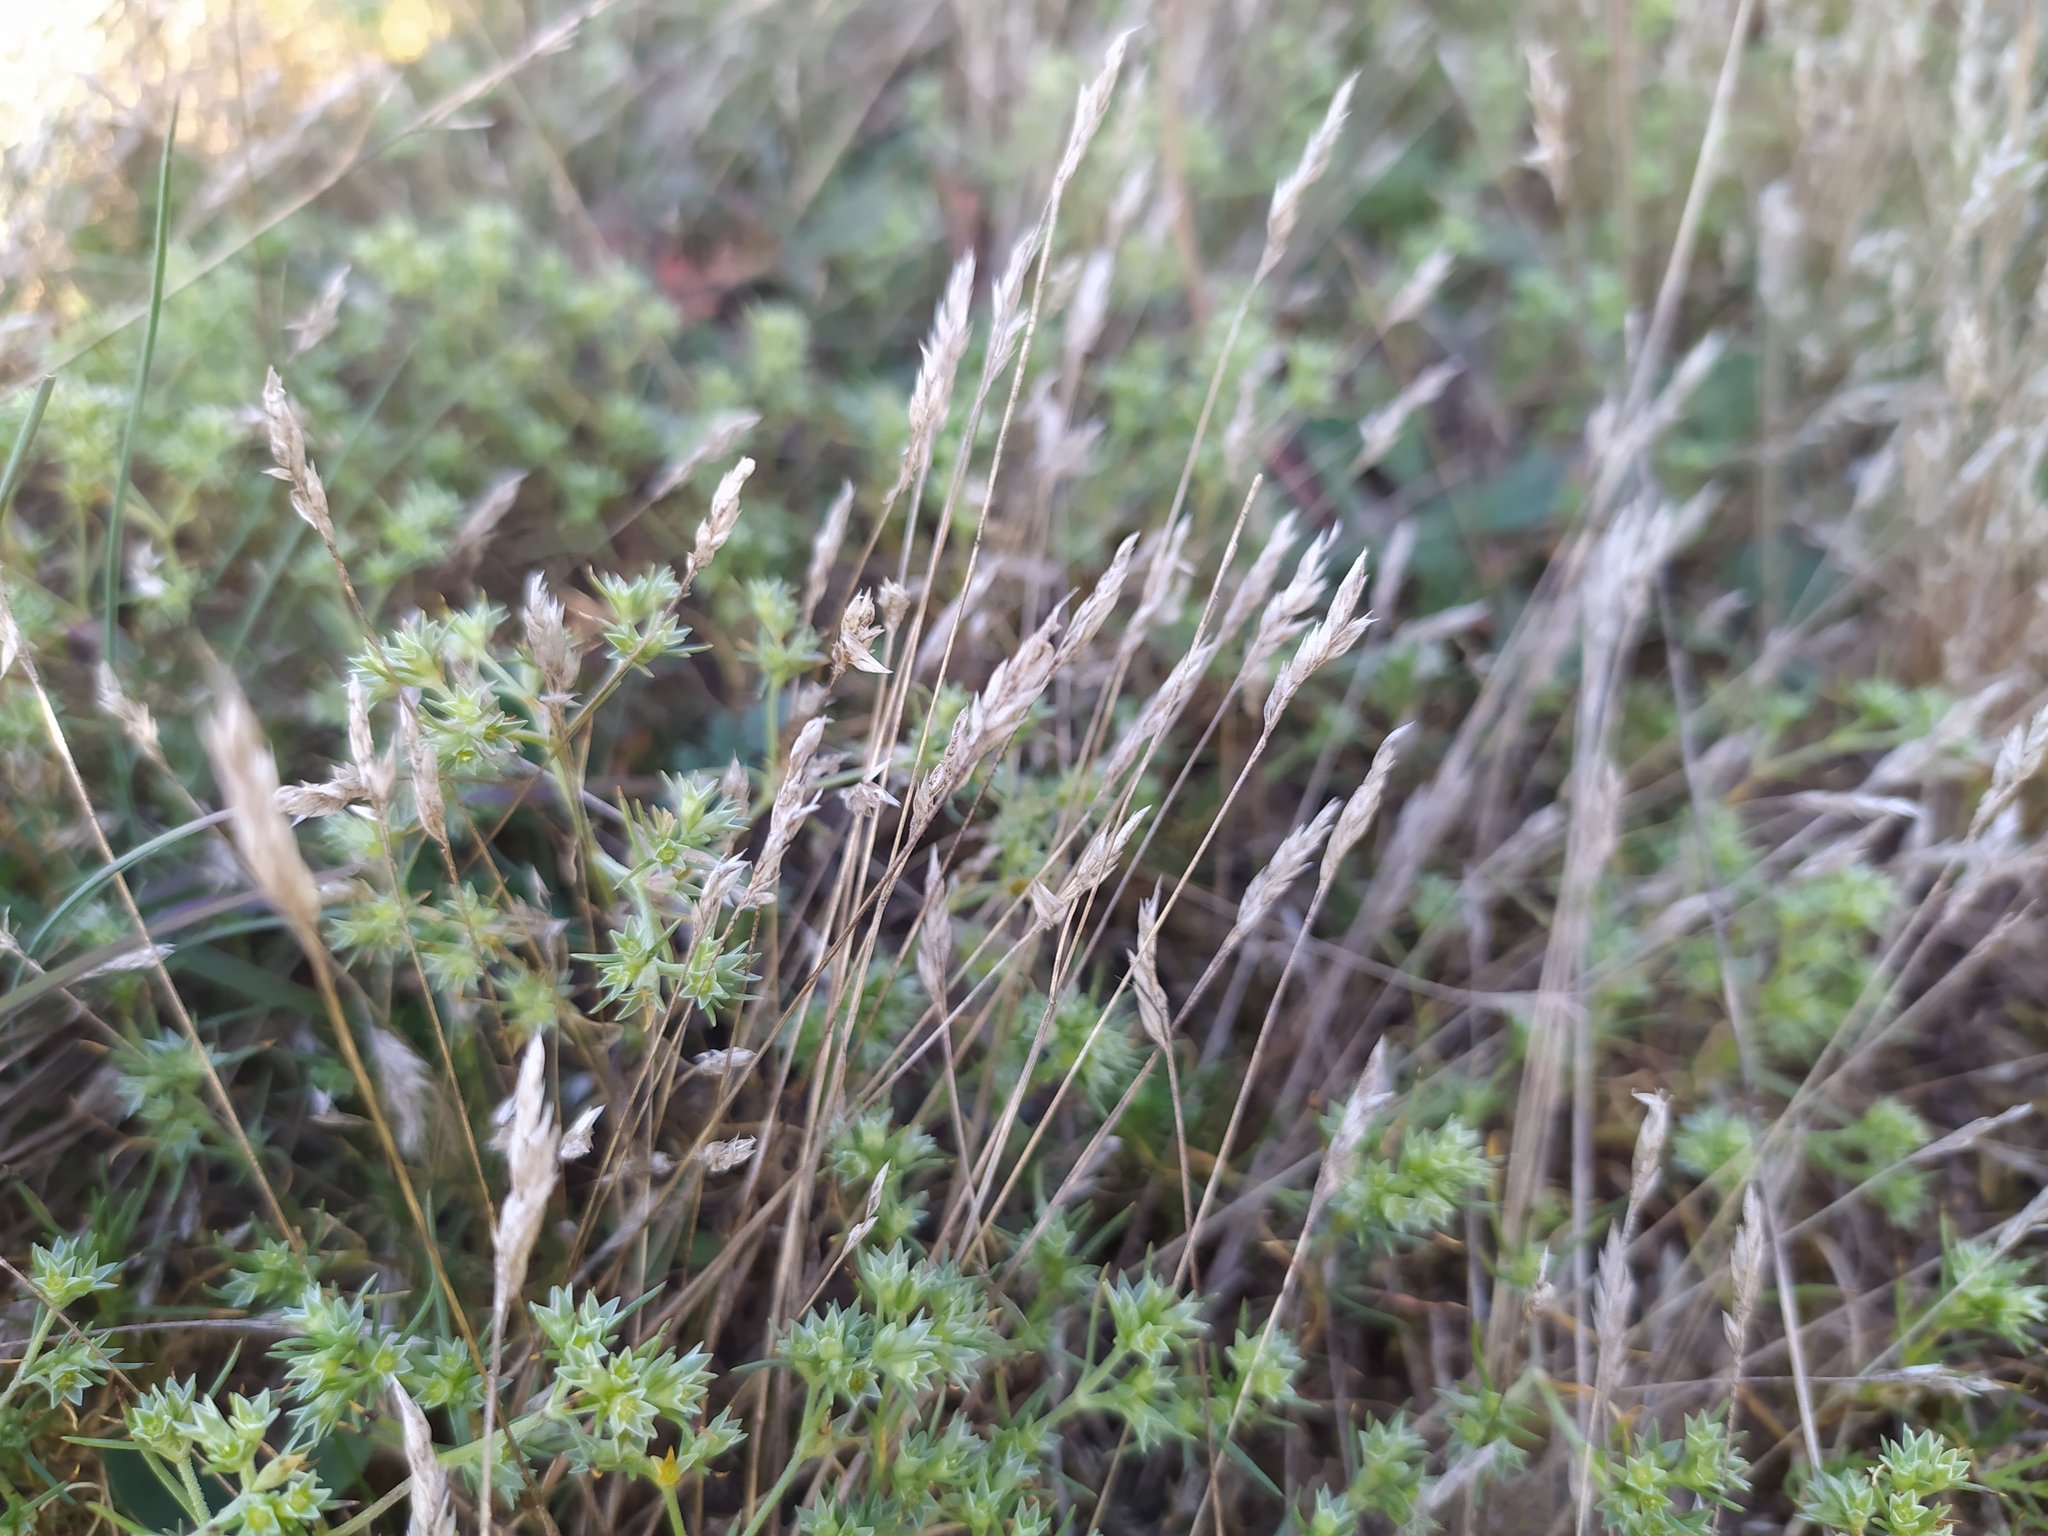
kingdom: Plantae
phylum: Tracheophyta
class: Liliopsida
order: Poales
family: Poaceae
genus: Aira
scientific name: Aira praecox
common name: Early hair-grass
